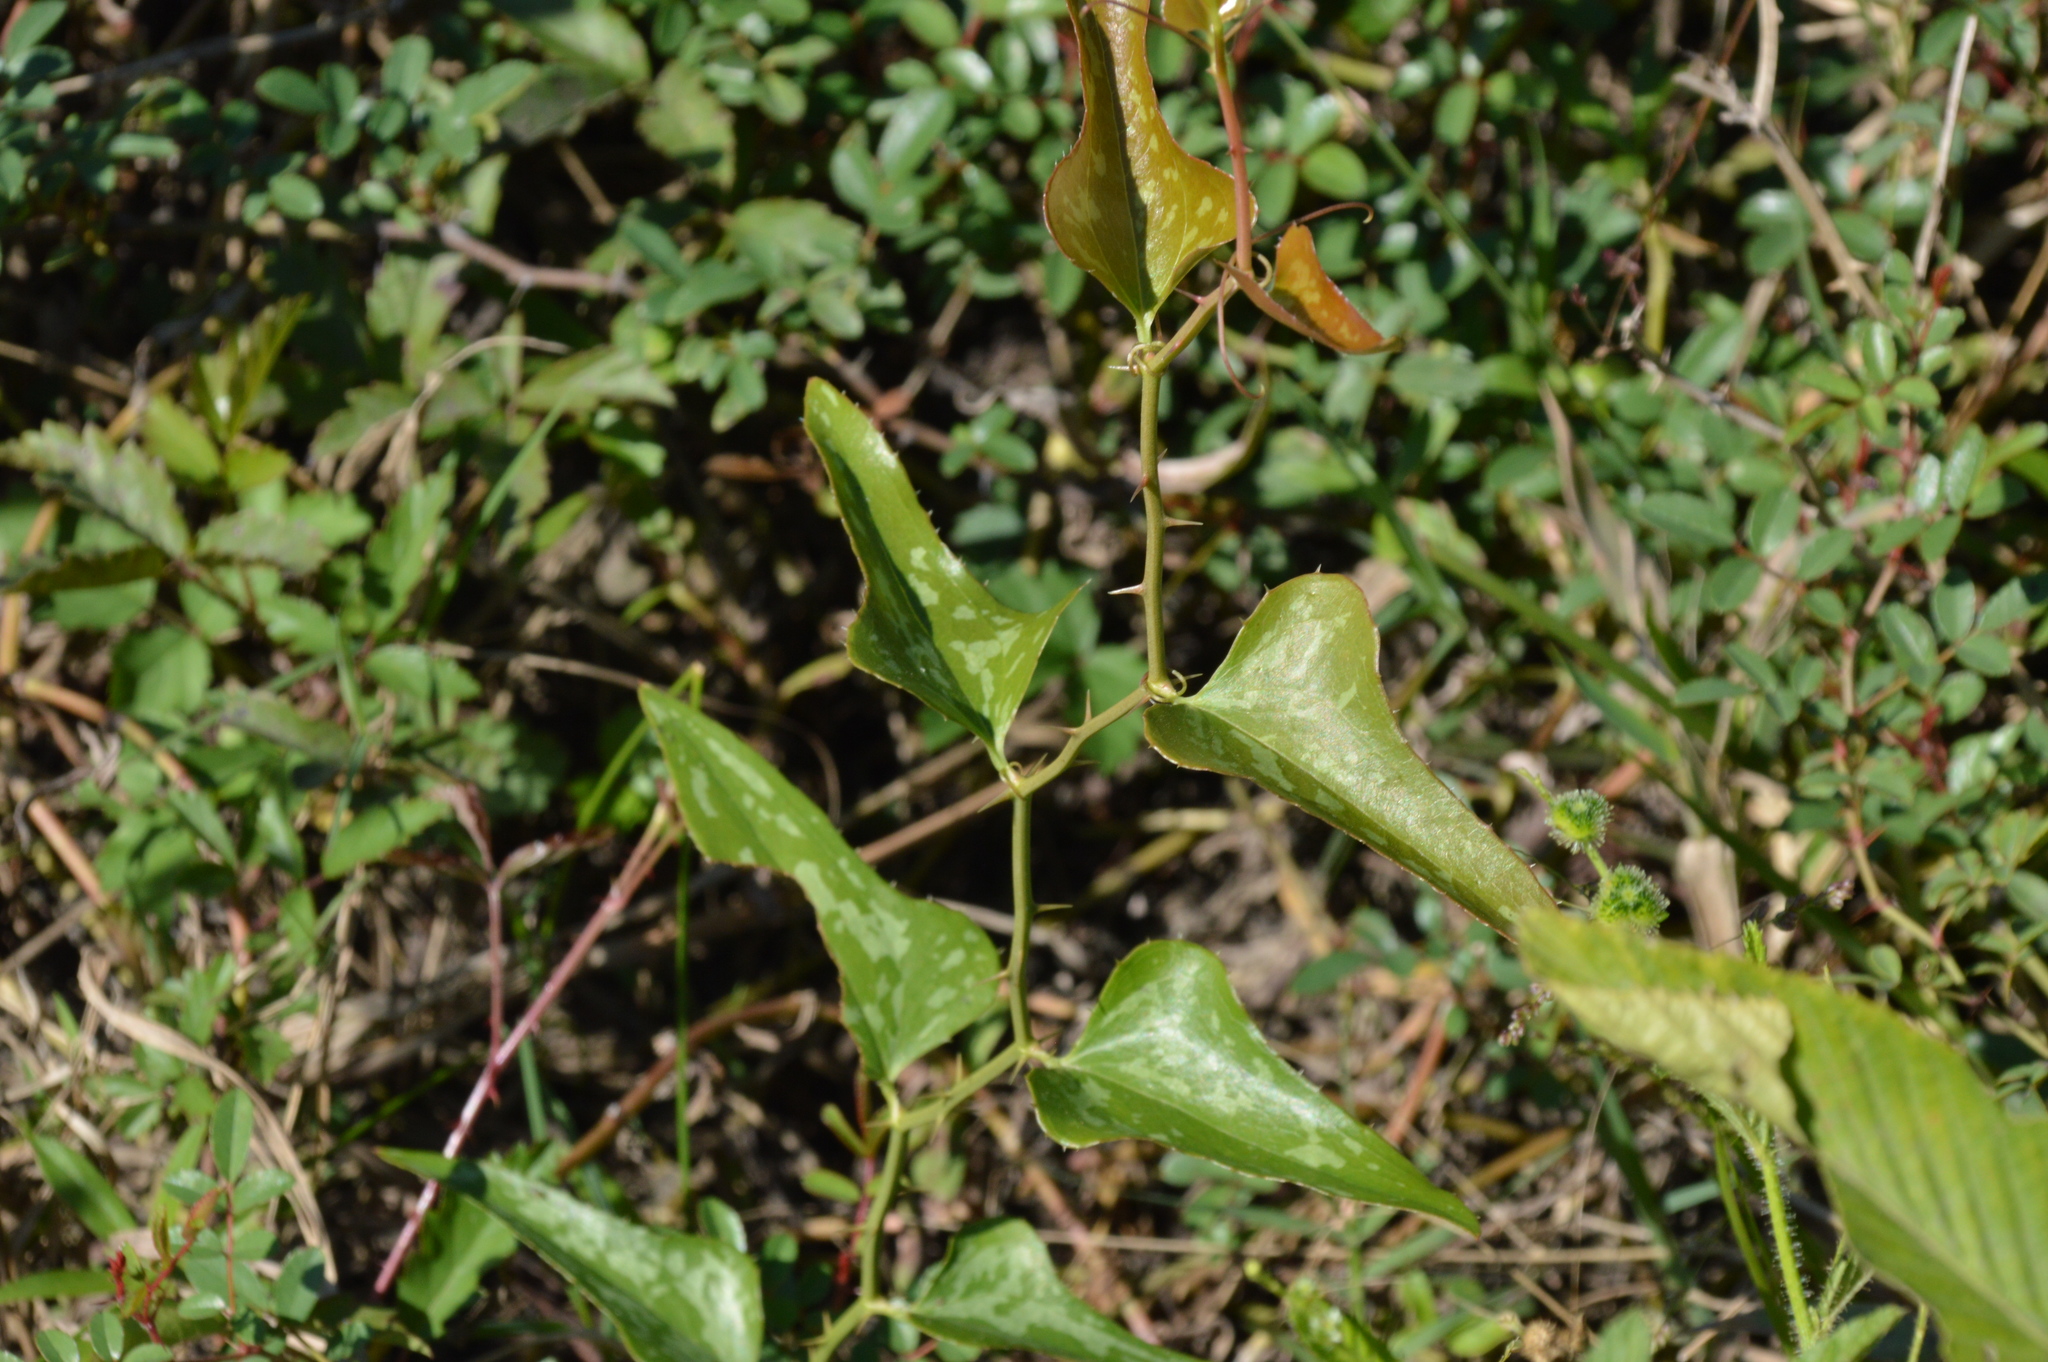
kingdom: Plantae
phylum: Tracheophyta
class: Liliopsida
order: Liliales
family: Smilacaceae
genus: Smilax
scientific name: Smilax bona-nox
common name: Catbrier
